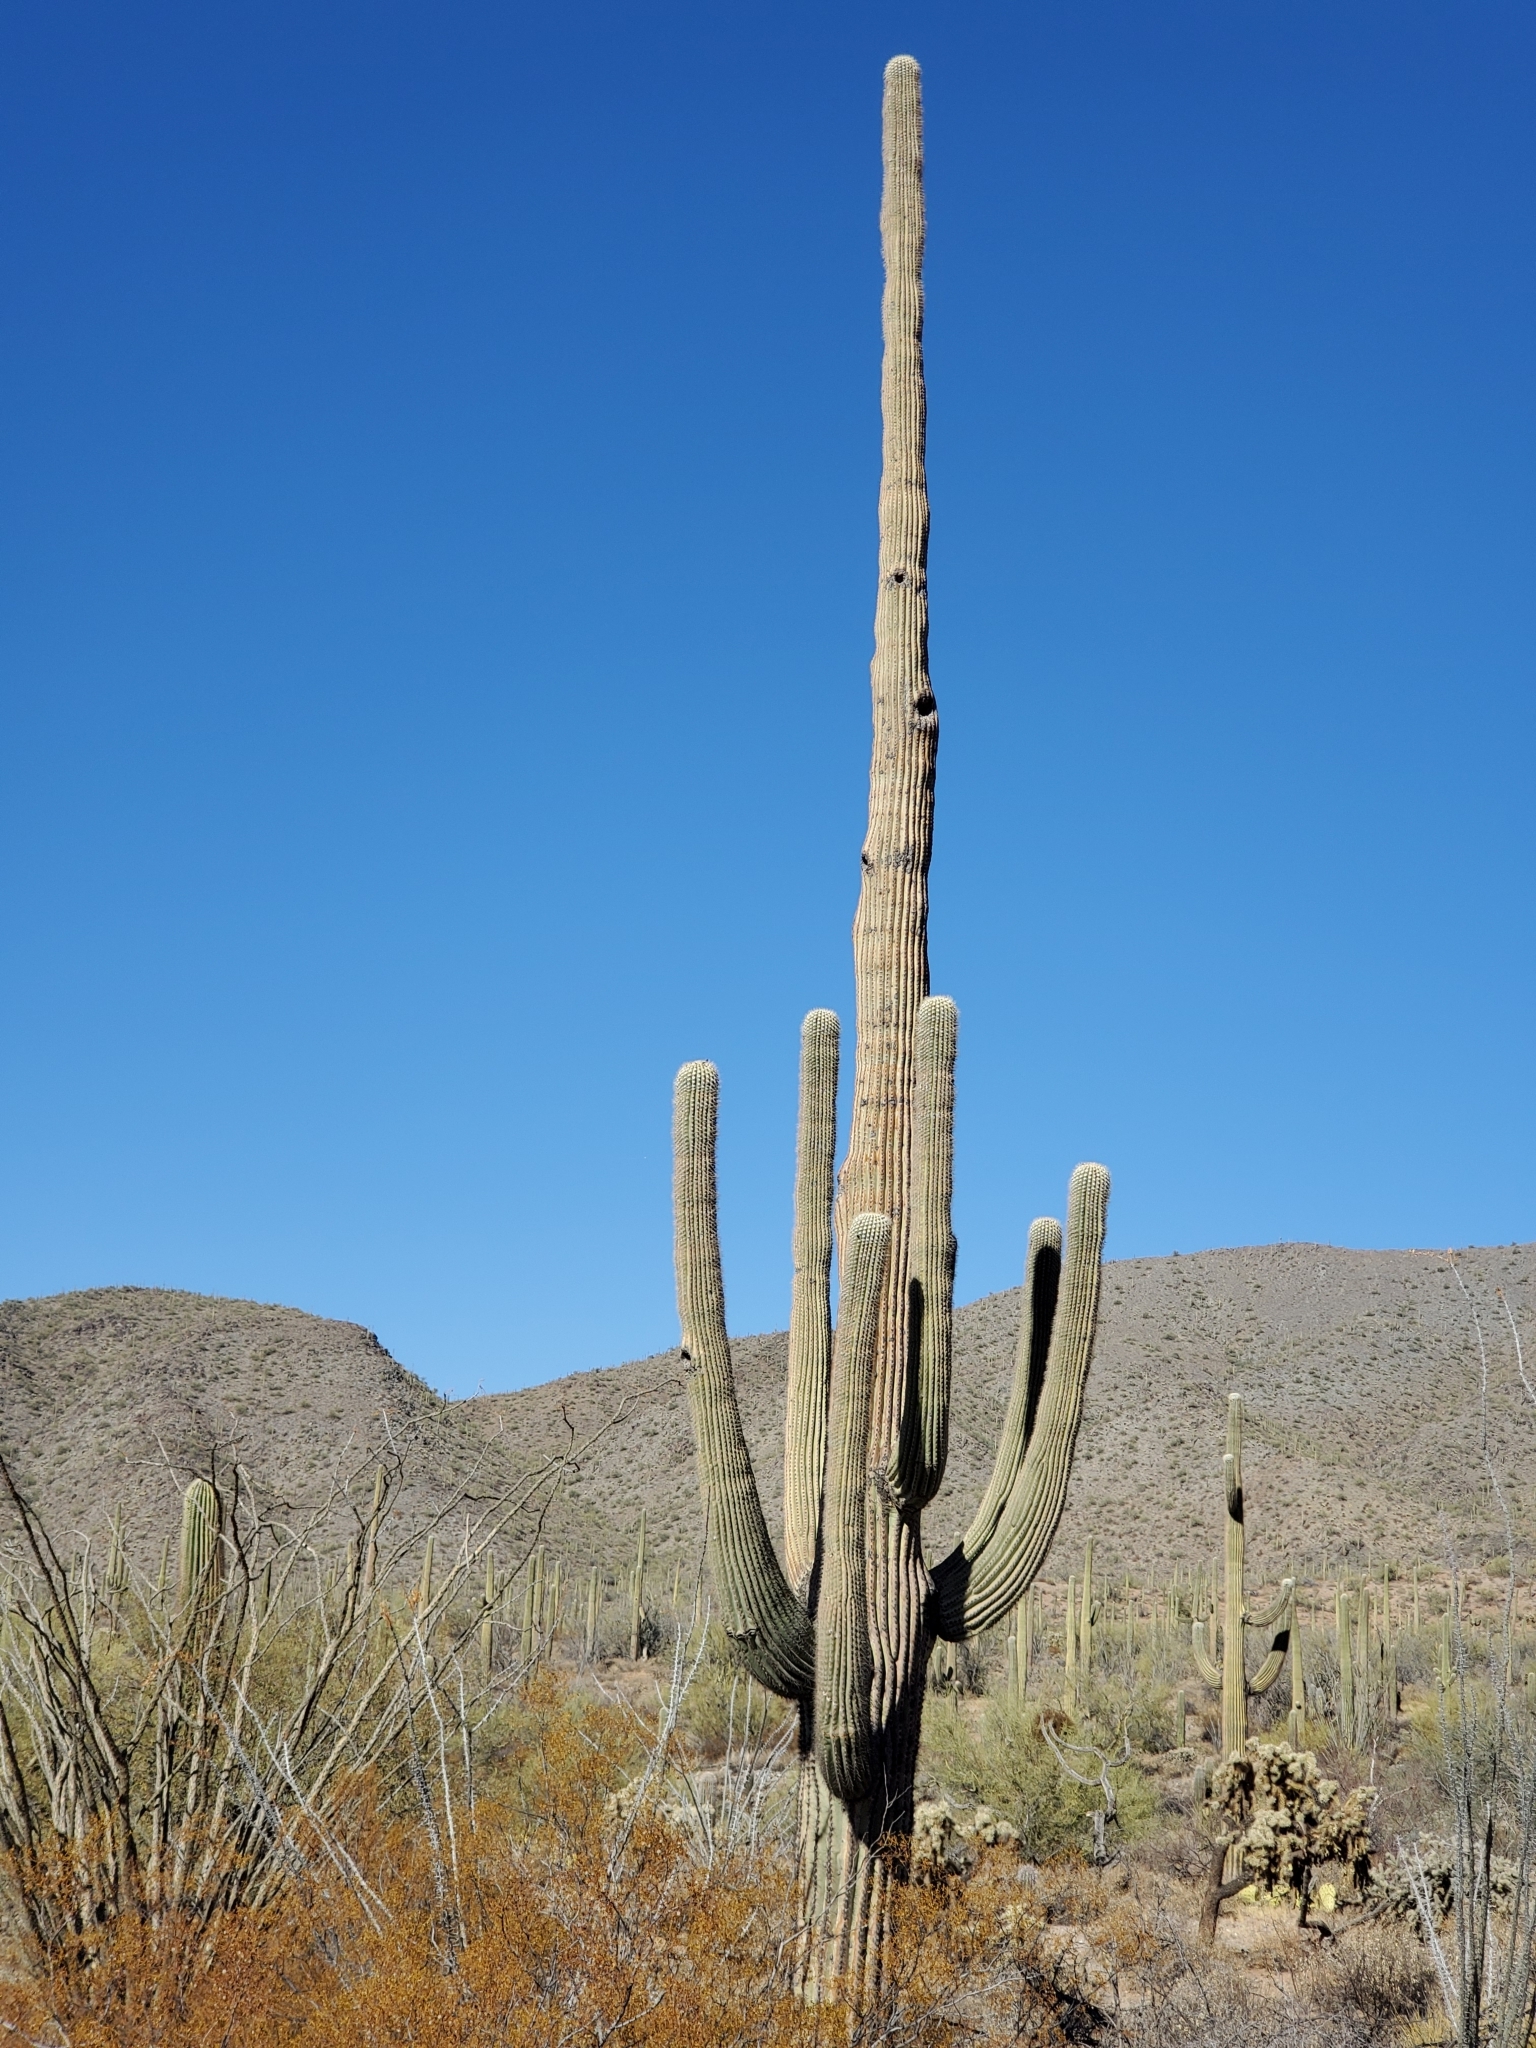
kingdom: Plantae
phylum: Tracheophyta
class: Magnoliopsida
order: Caryophyllales
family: Cactaceae
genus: Carnegiea
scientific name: Carnegiea gigantea
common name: Saguaro
